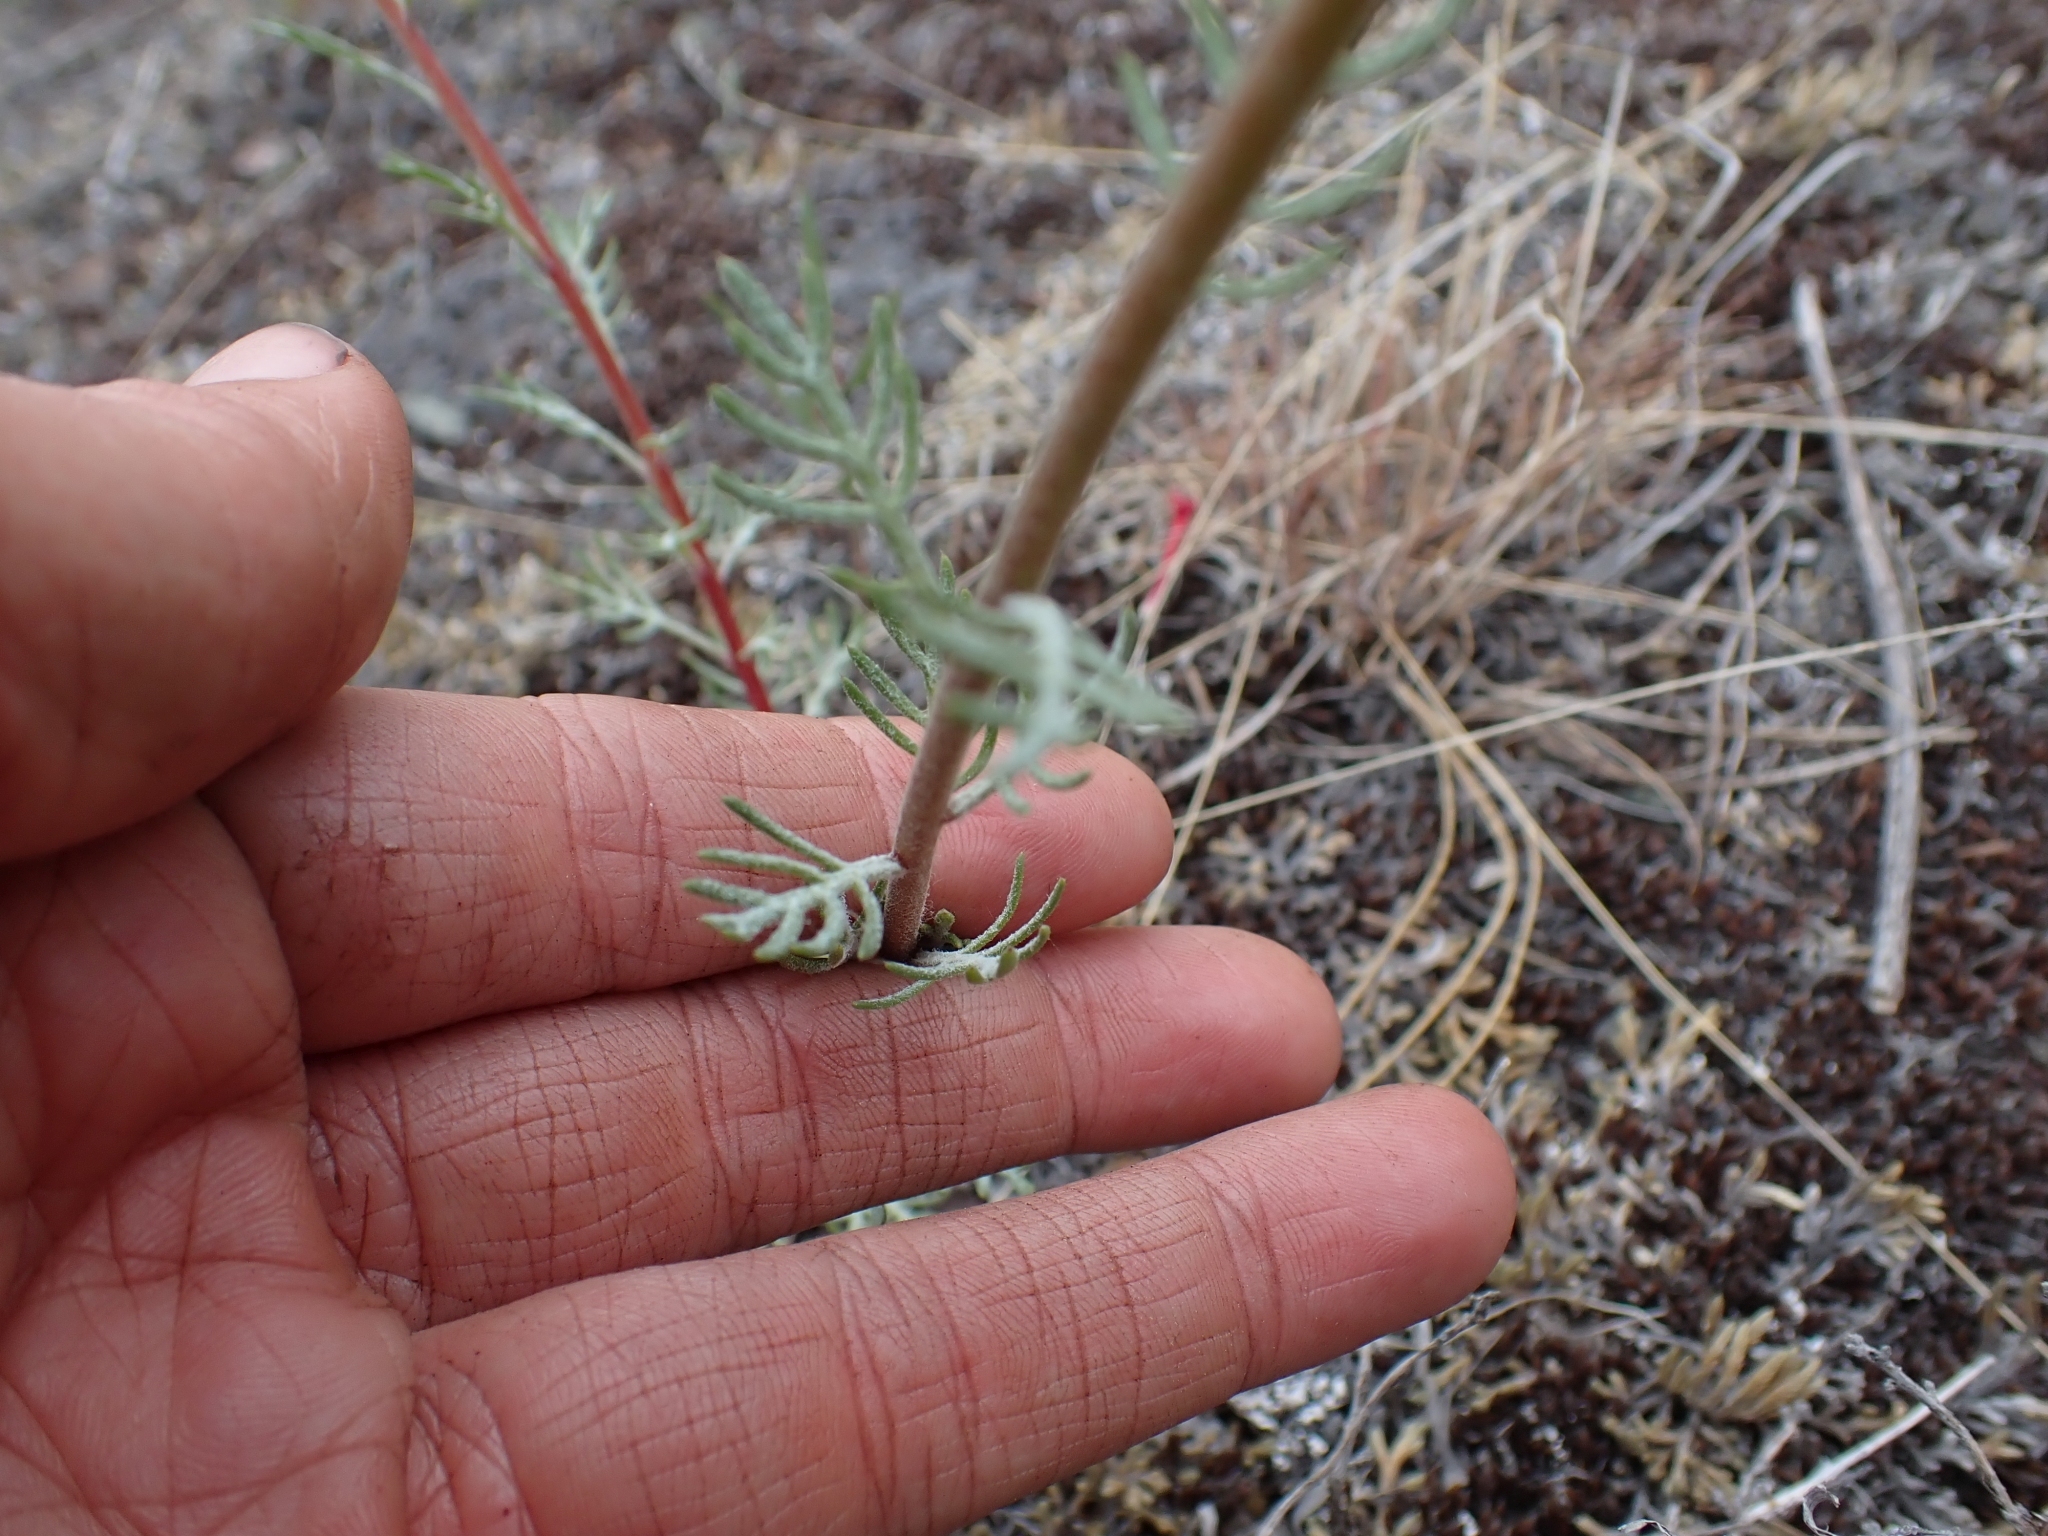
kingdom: Plantae
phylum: Tracheophyta
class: Magnoliopsida
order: Ericales
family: Polemoniaceae
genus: Ipomopsis
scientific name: Ipomopsis aggregata
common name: Scarlet gilia
